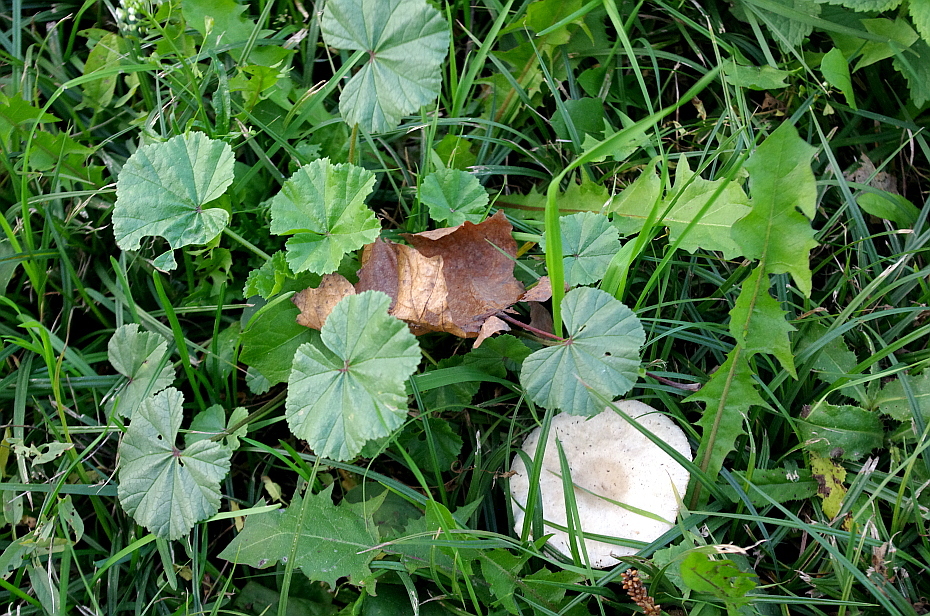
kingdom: Plantae
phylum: Tracheophyta
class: Magnoliopsida
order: Malvales
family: Malvaceae
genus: Malva
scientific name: Malva pusilla
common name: Small mallow
